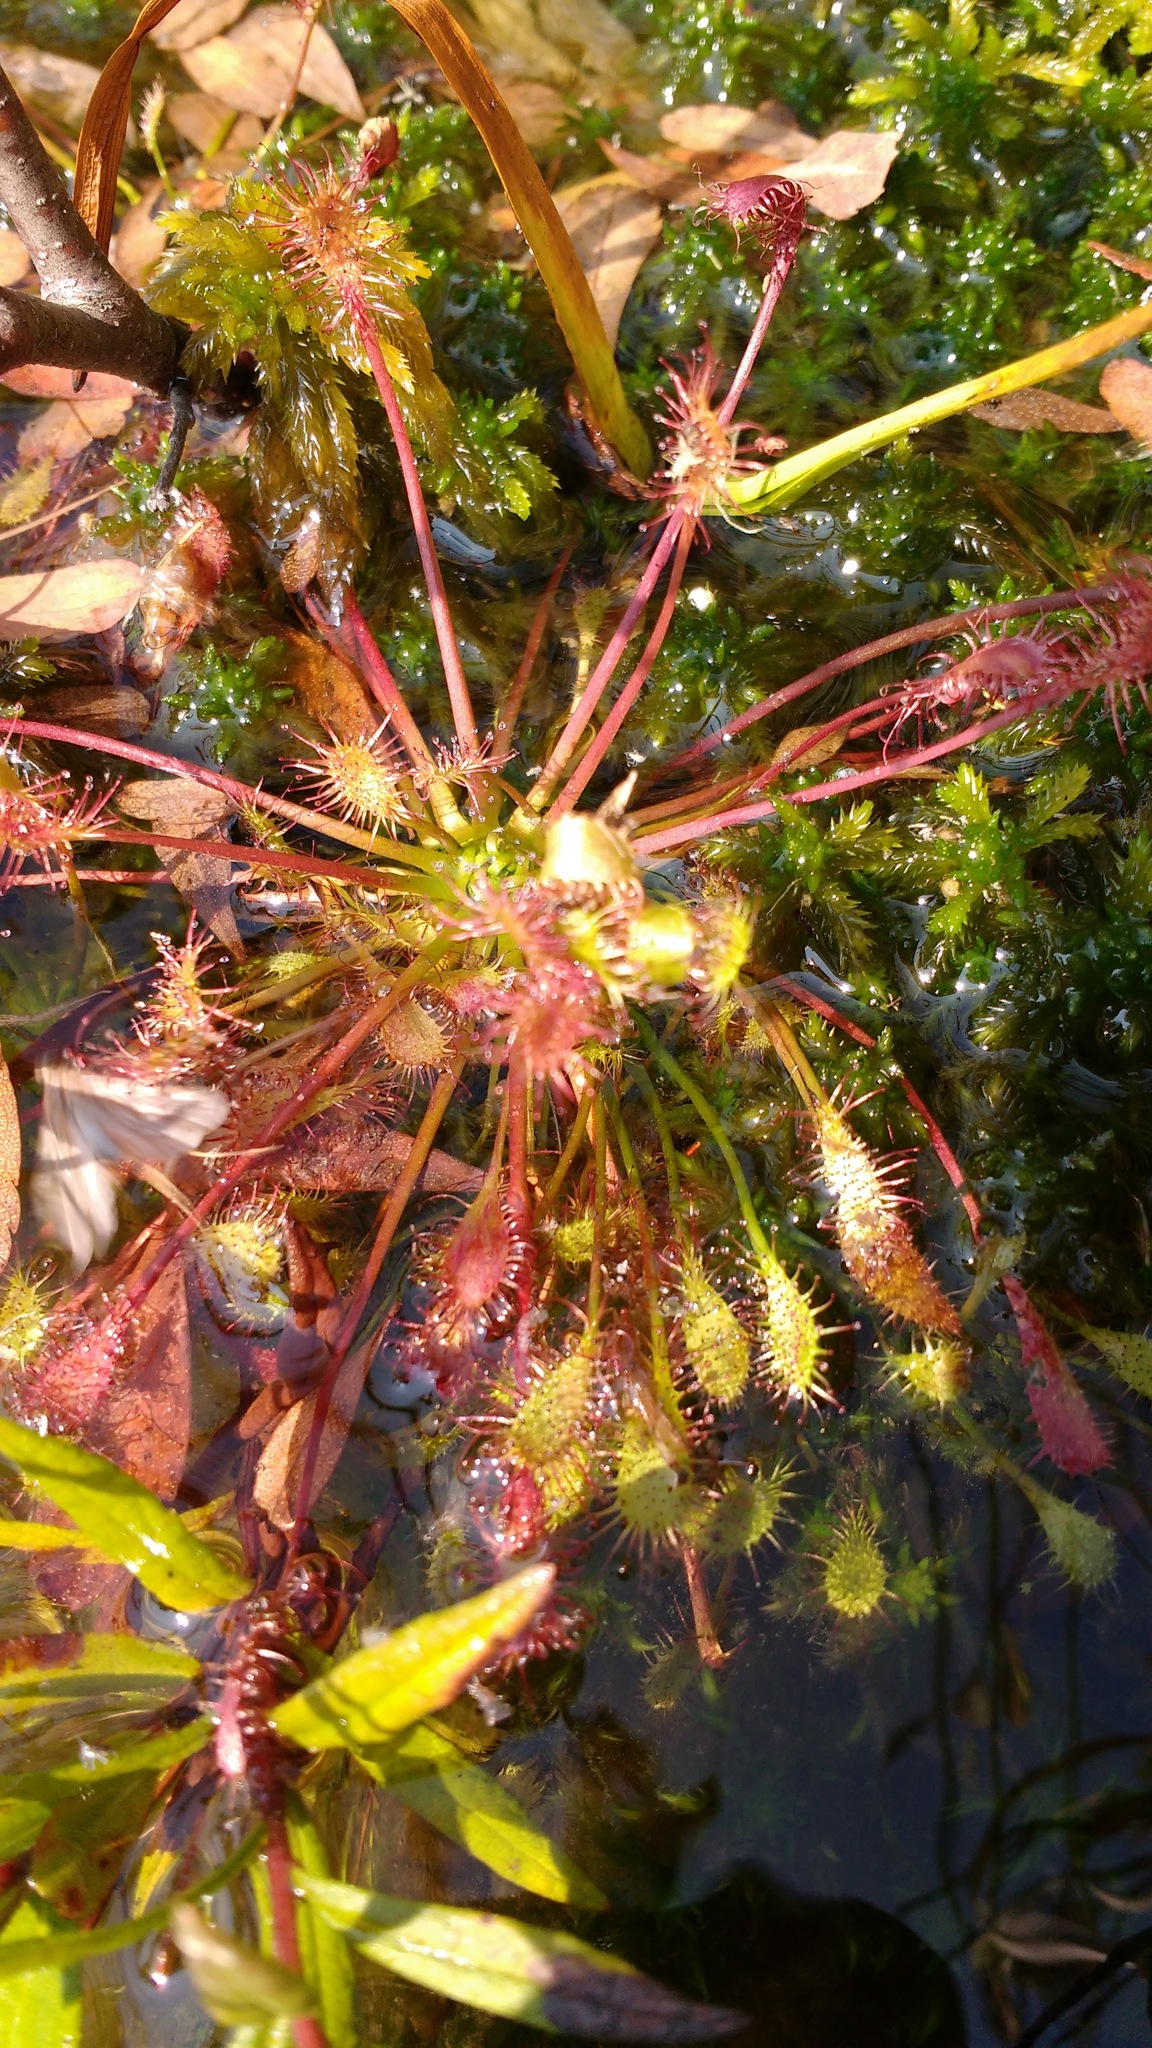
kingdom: Plantae
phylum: Tracheophyta
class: Magnoliopsida
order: Caryophyllales
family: Droseraceae
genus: Drosera
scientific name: Drosera intermedia
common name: Oblong-leaved sundew
